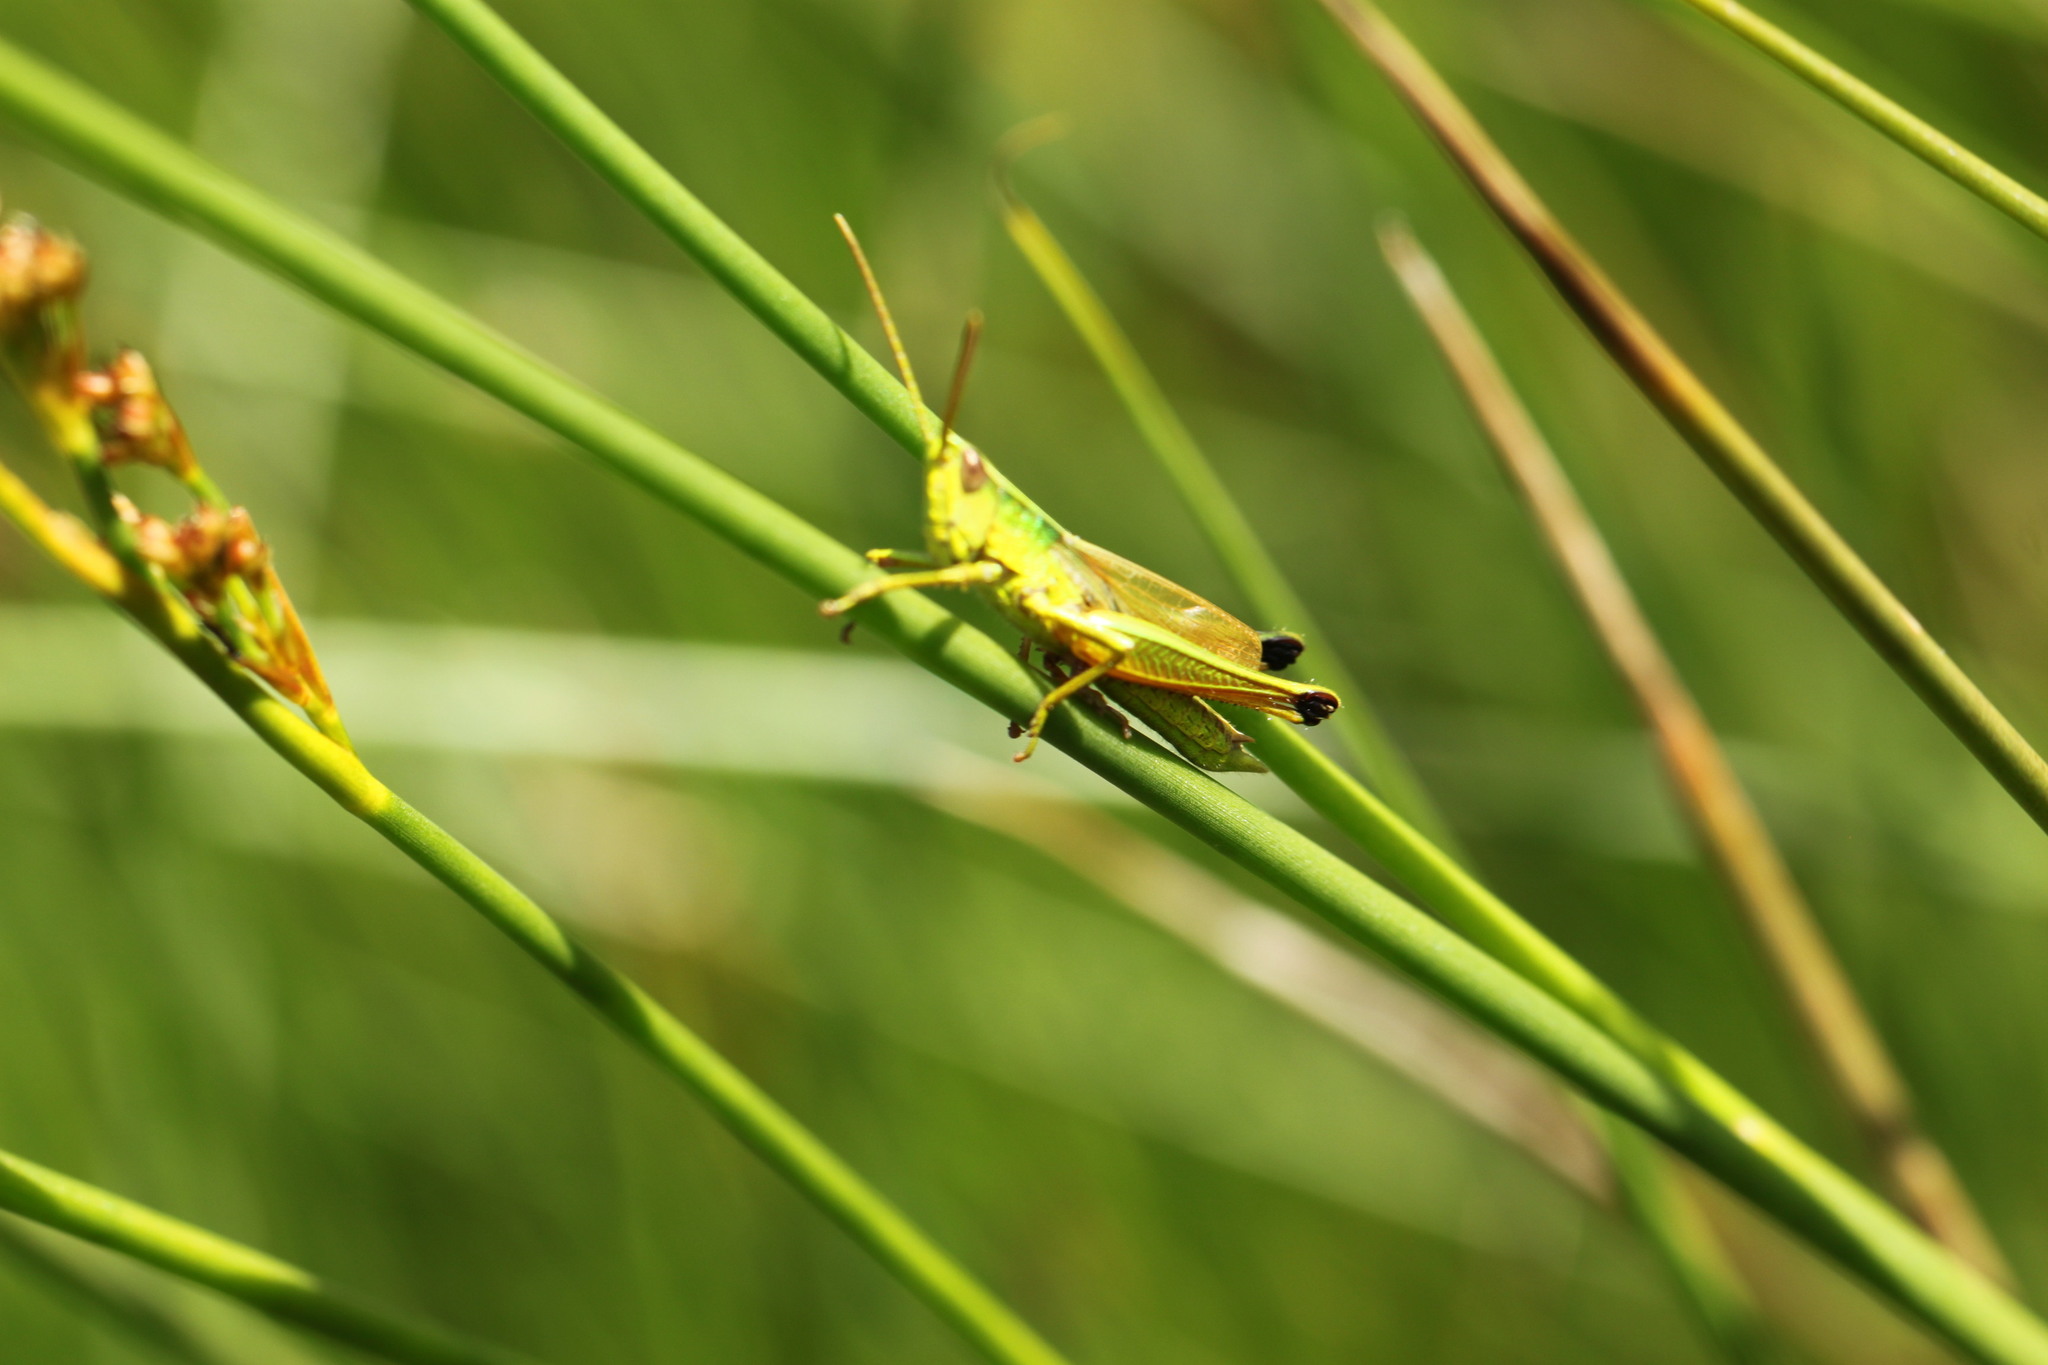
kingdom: Animalia
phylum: Arthropoda
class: Insecta
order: Orthoptera
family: Acrididae
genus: Chrysochraon
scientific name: Chrysochraon dispar
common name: Large gold grasshopper
